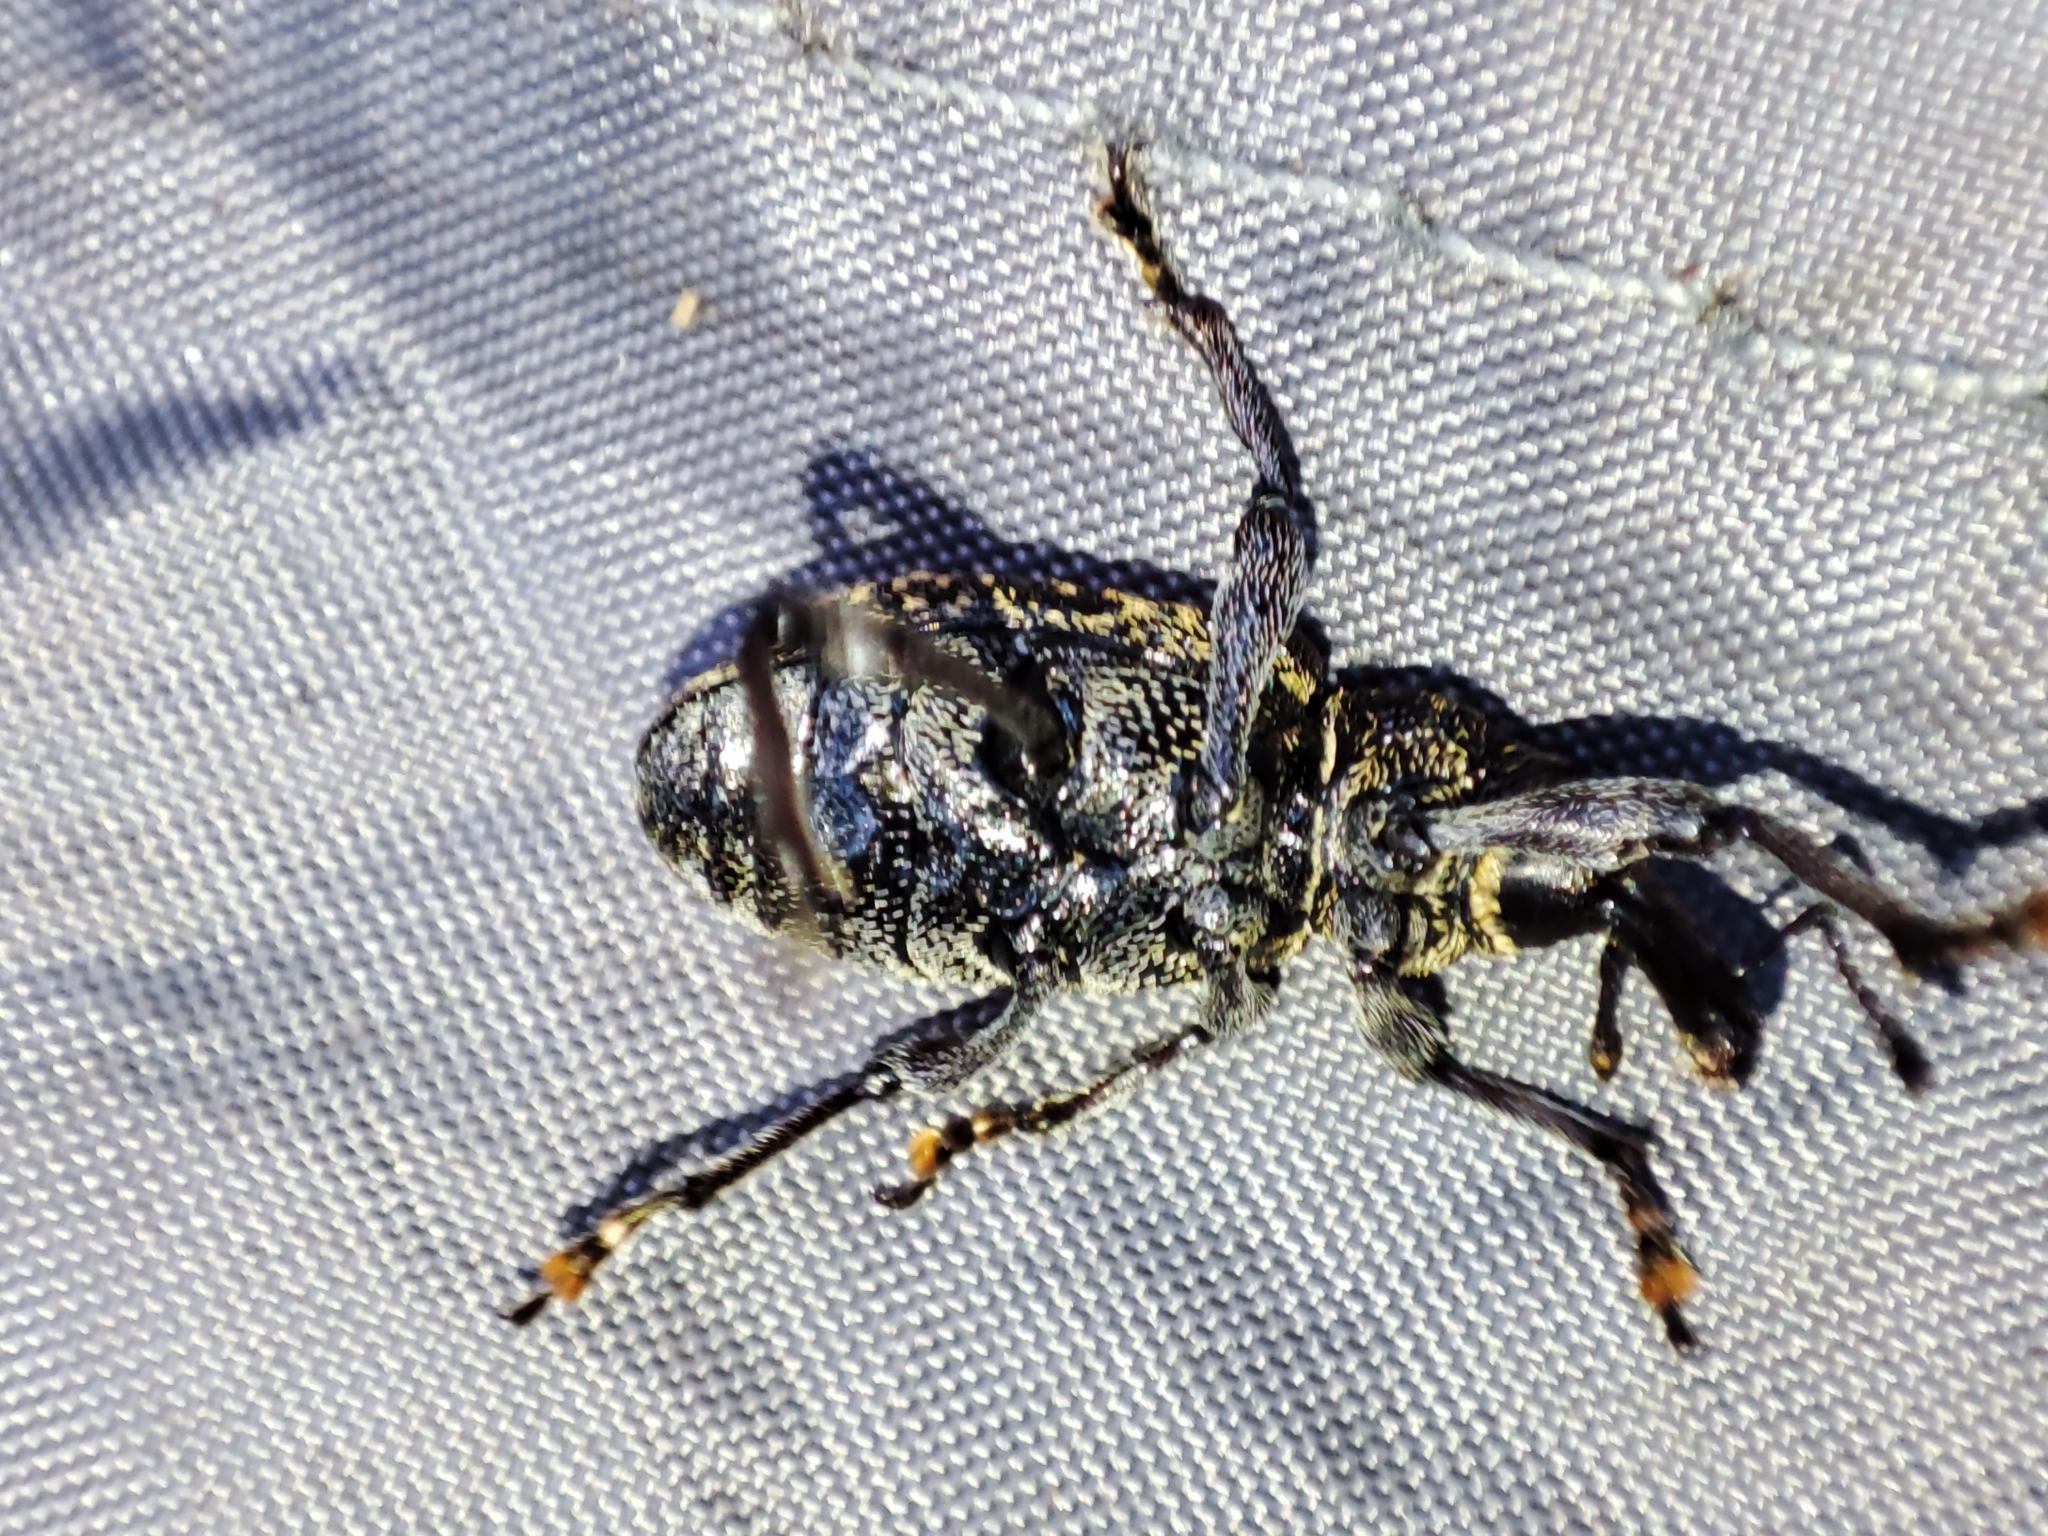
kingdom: Animalia
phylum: Arthropoda
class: Insecta
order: Coleoptera
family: Curculionidae
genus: Hylobius
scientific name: Hylobius excavatus
